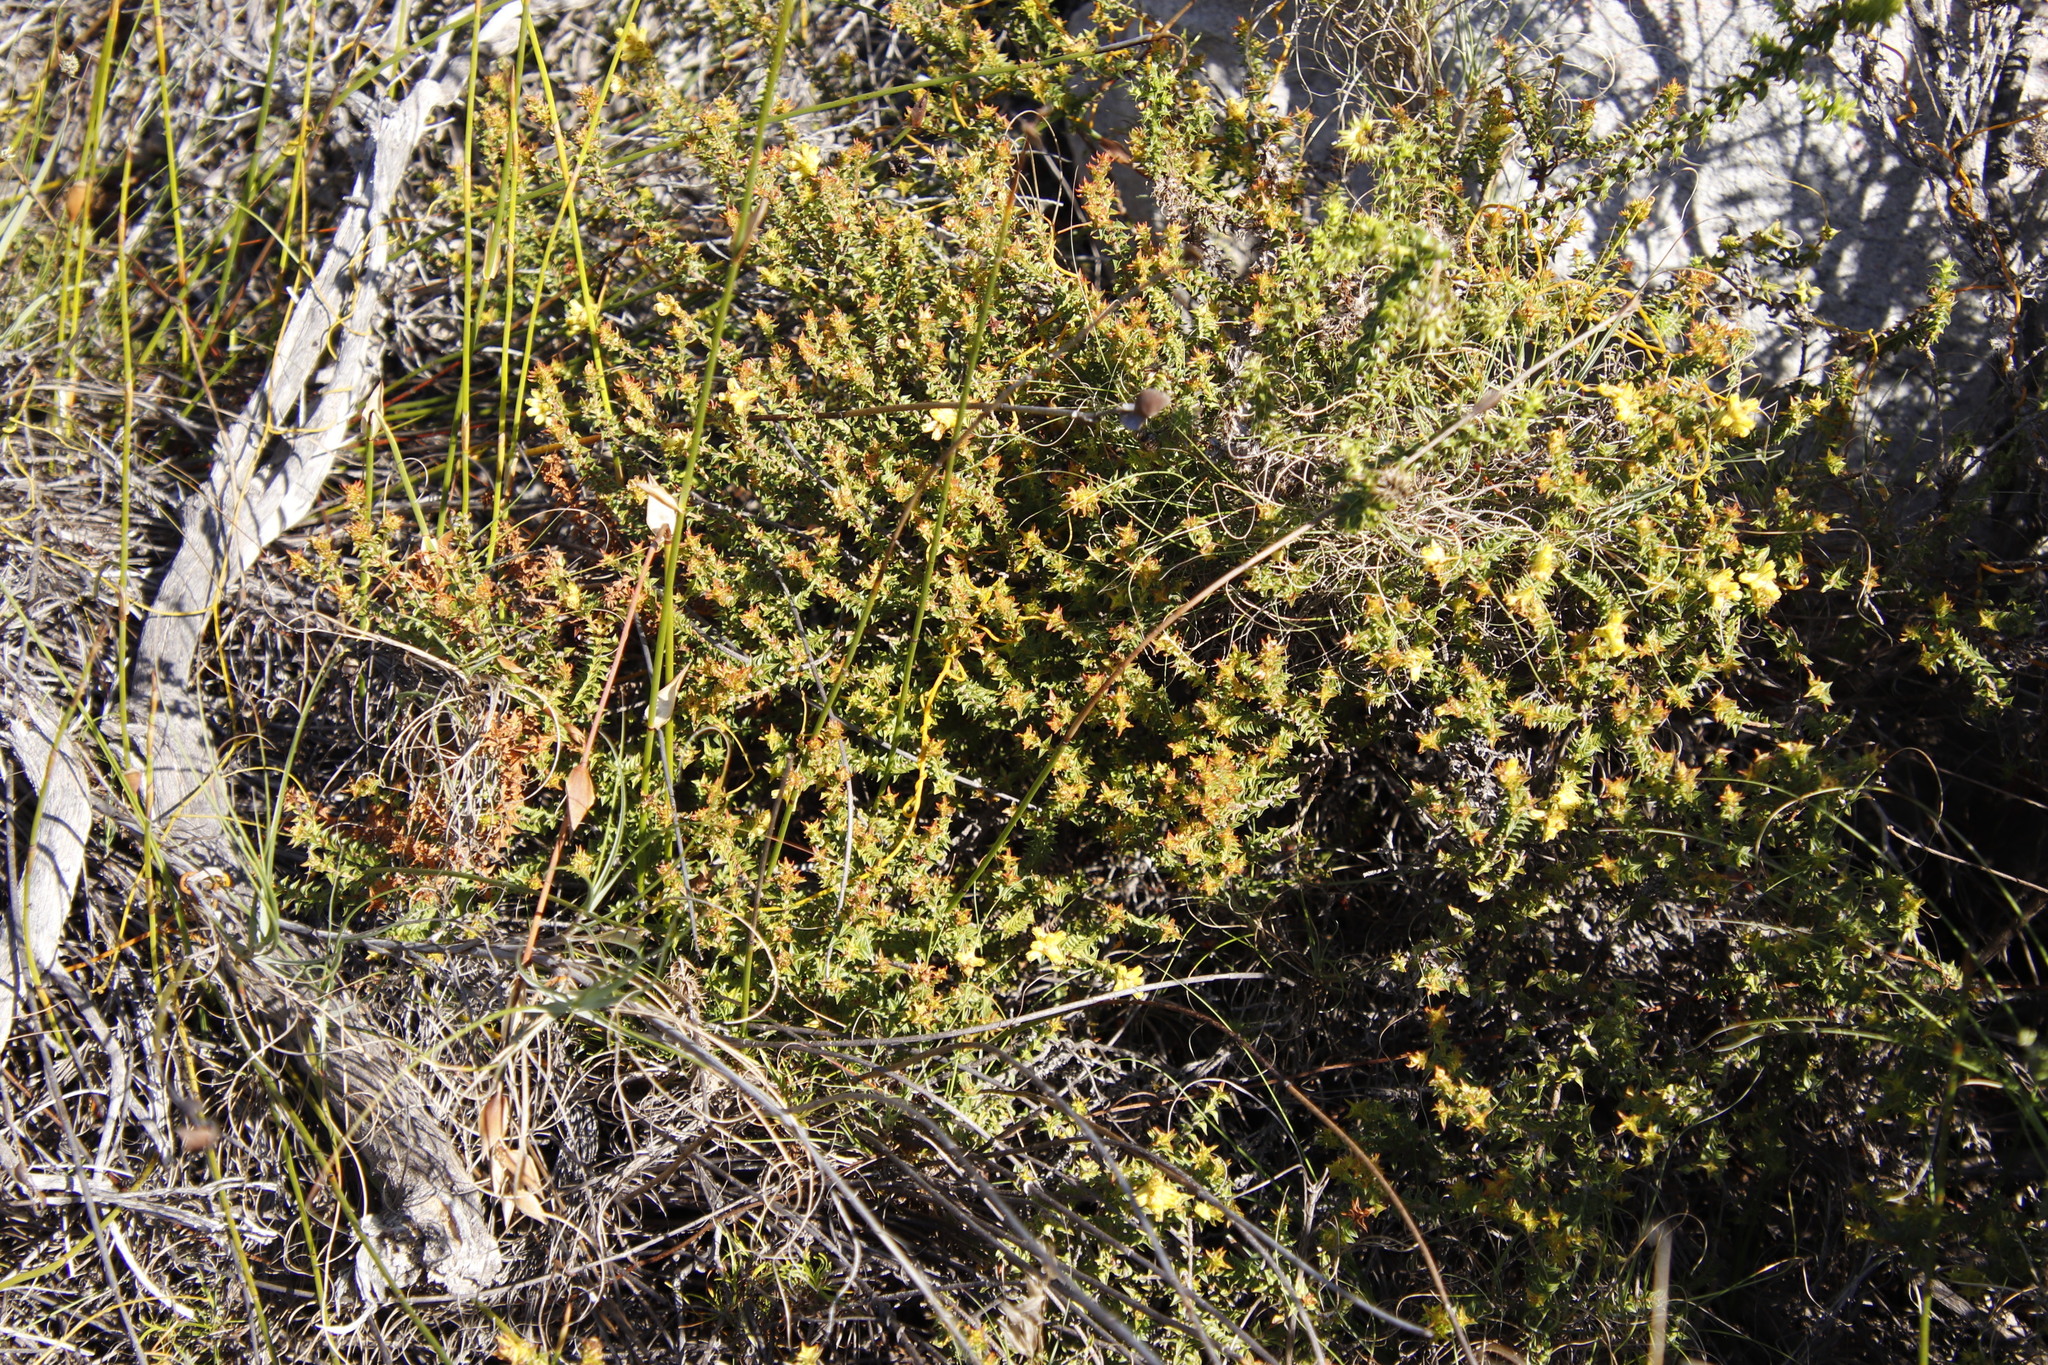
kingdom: Plantae
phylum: Tracheophyta
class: Magnoliopsida
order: Myrtales
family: Penaeaceae
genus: Penaea
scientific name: Penaea mucronata
